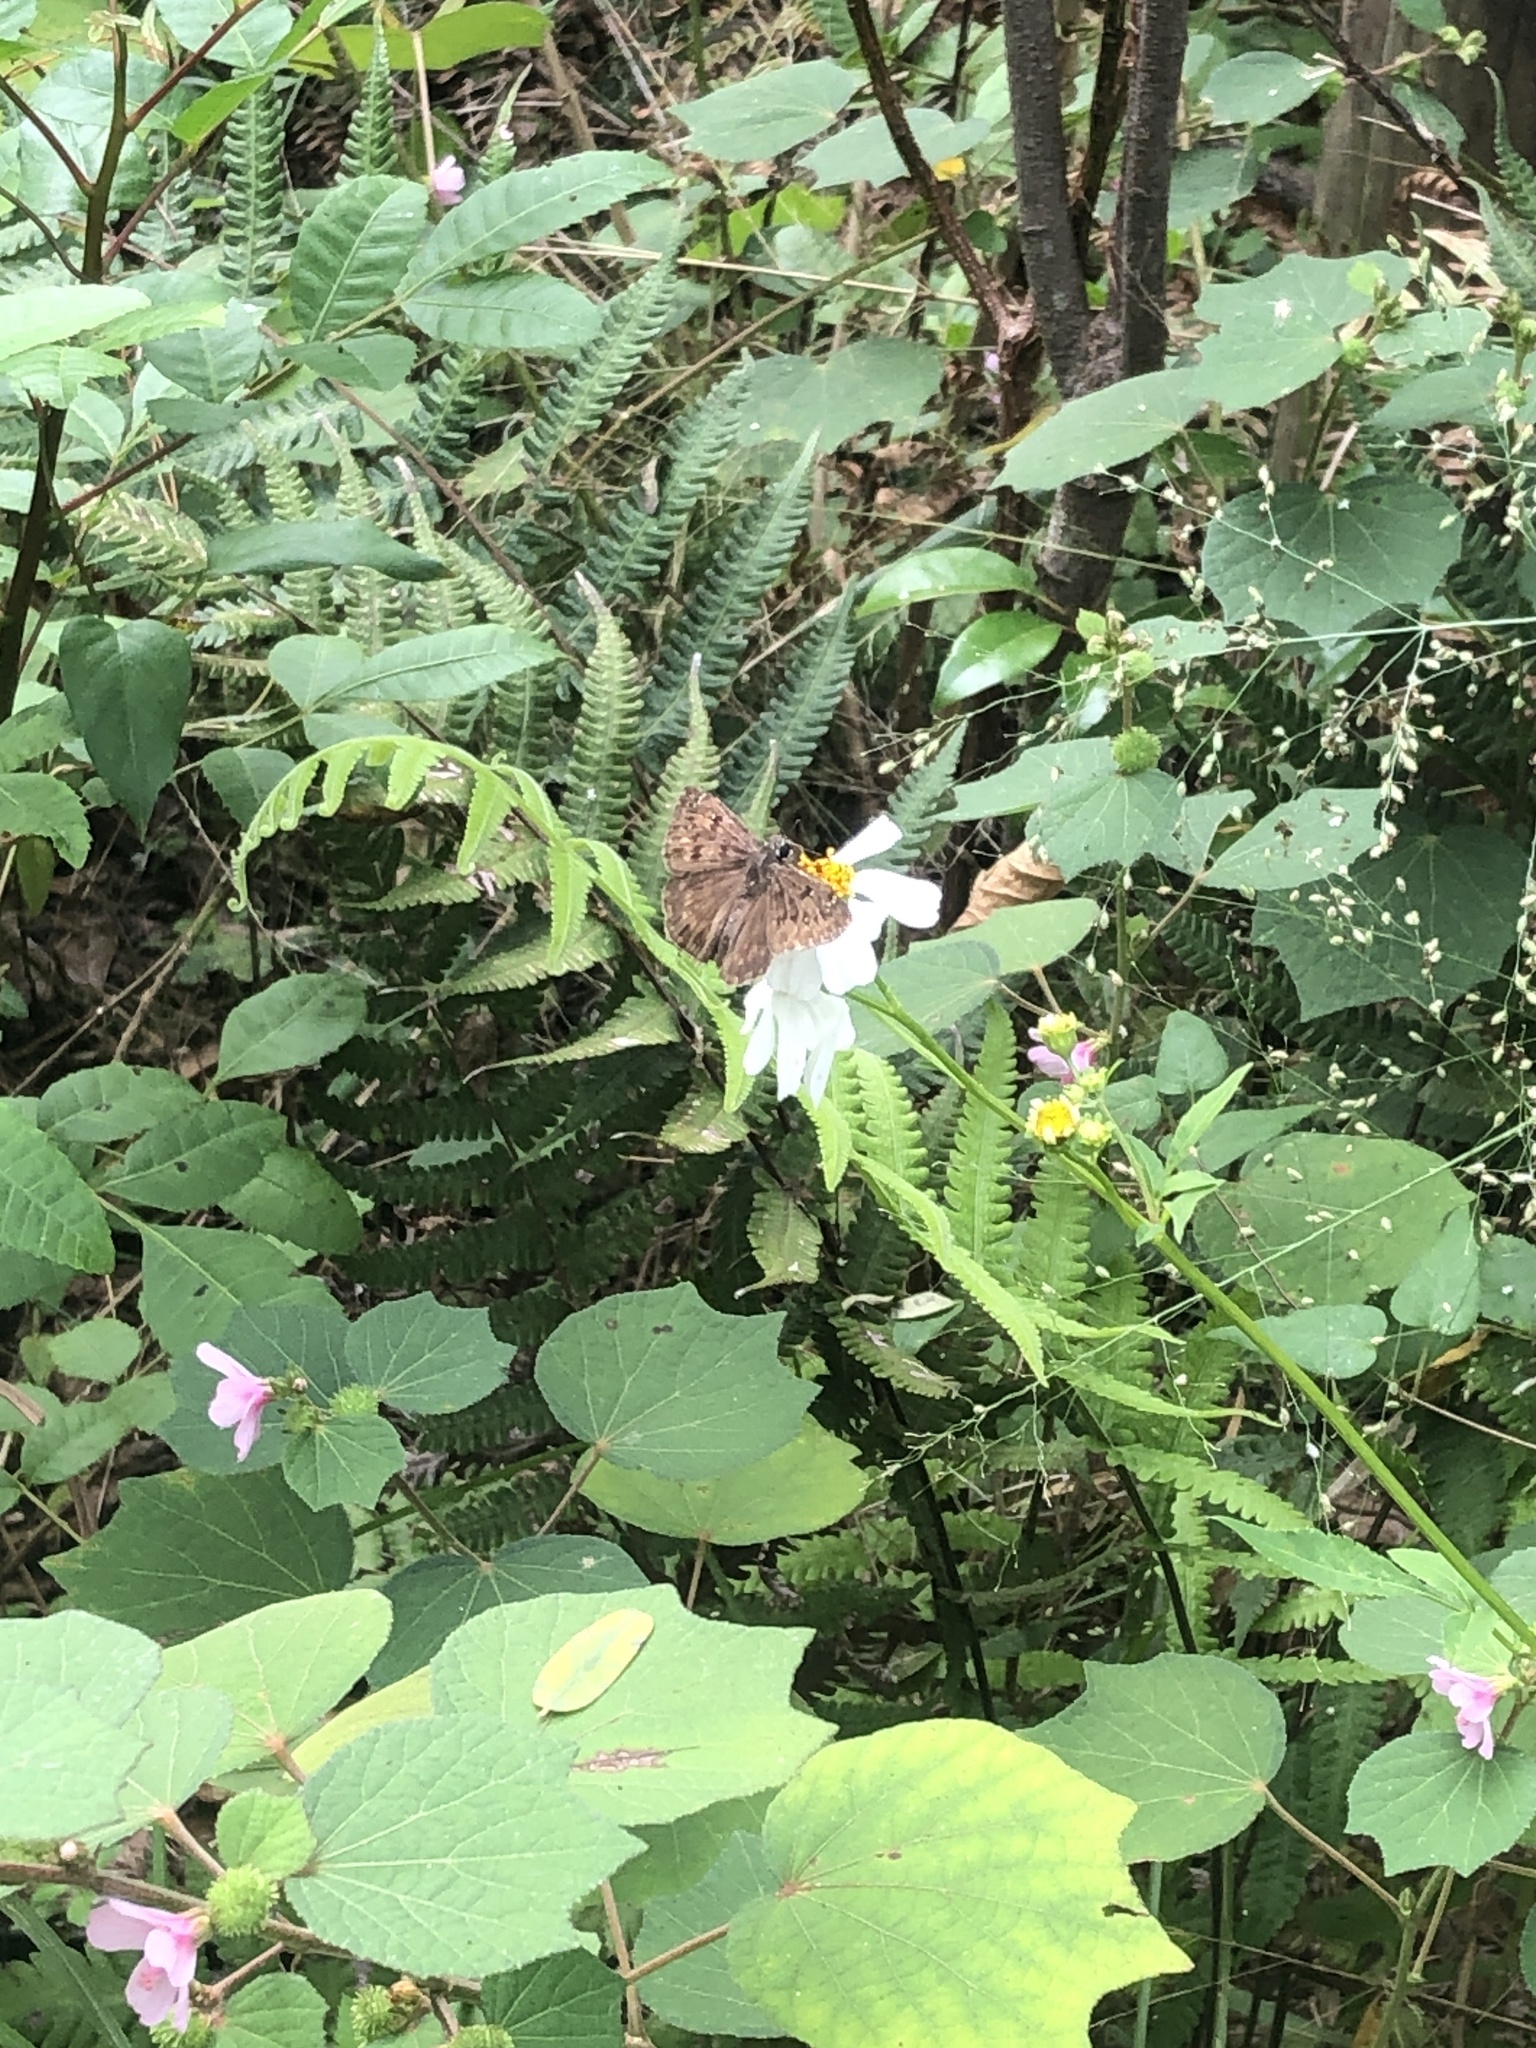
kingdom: Animalia
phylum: Arthropoda
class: Insecta
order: Lepidoptera
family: Hesperiidae
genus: Erynnis
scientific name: Erynnis horatius
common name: Horace's duskywing
